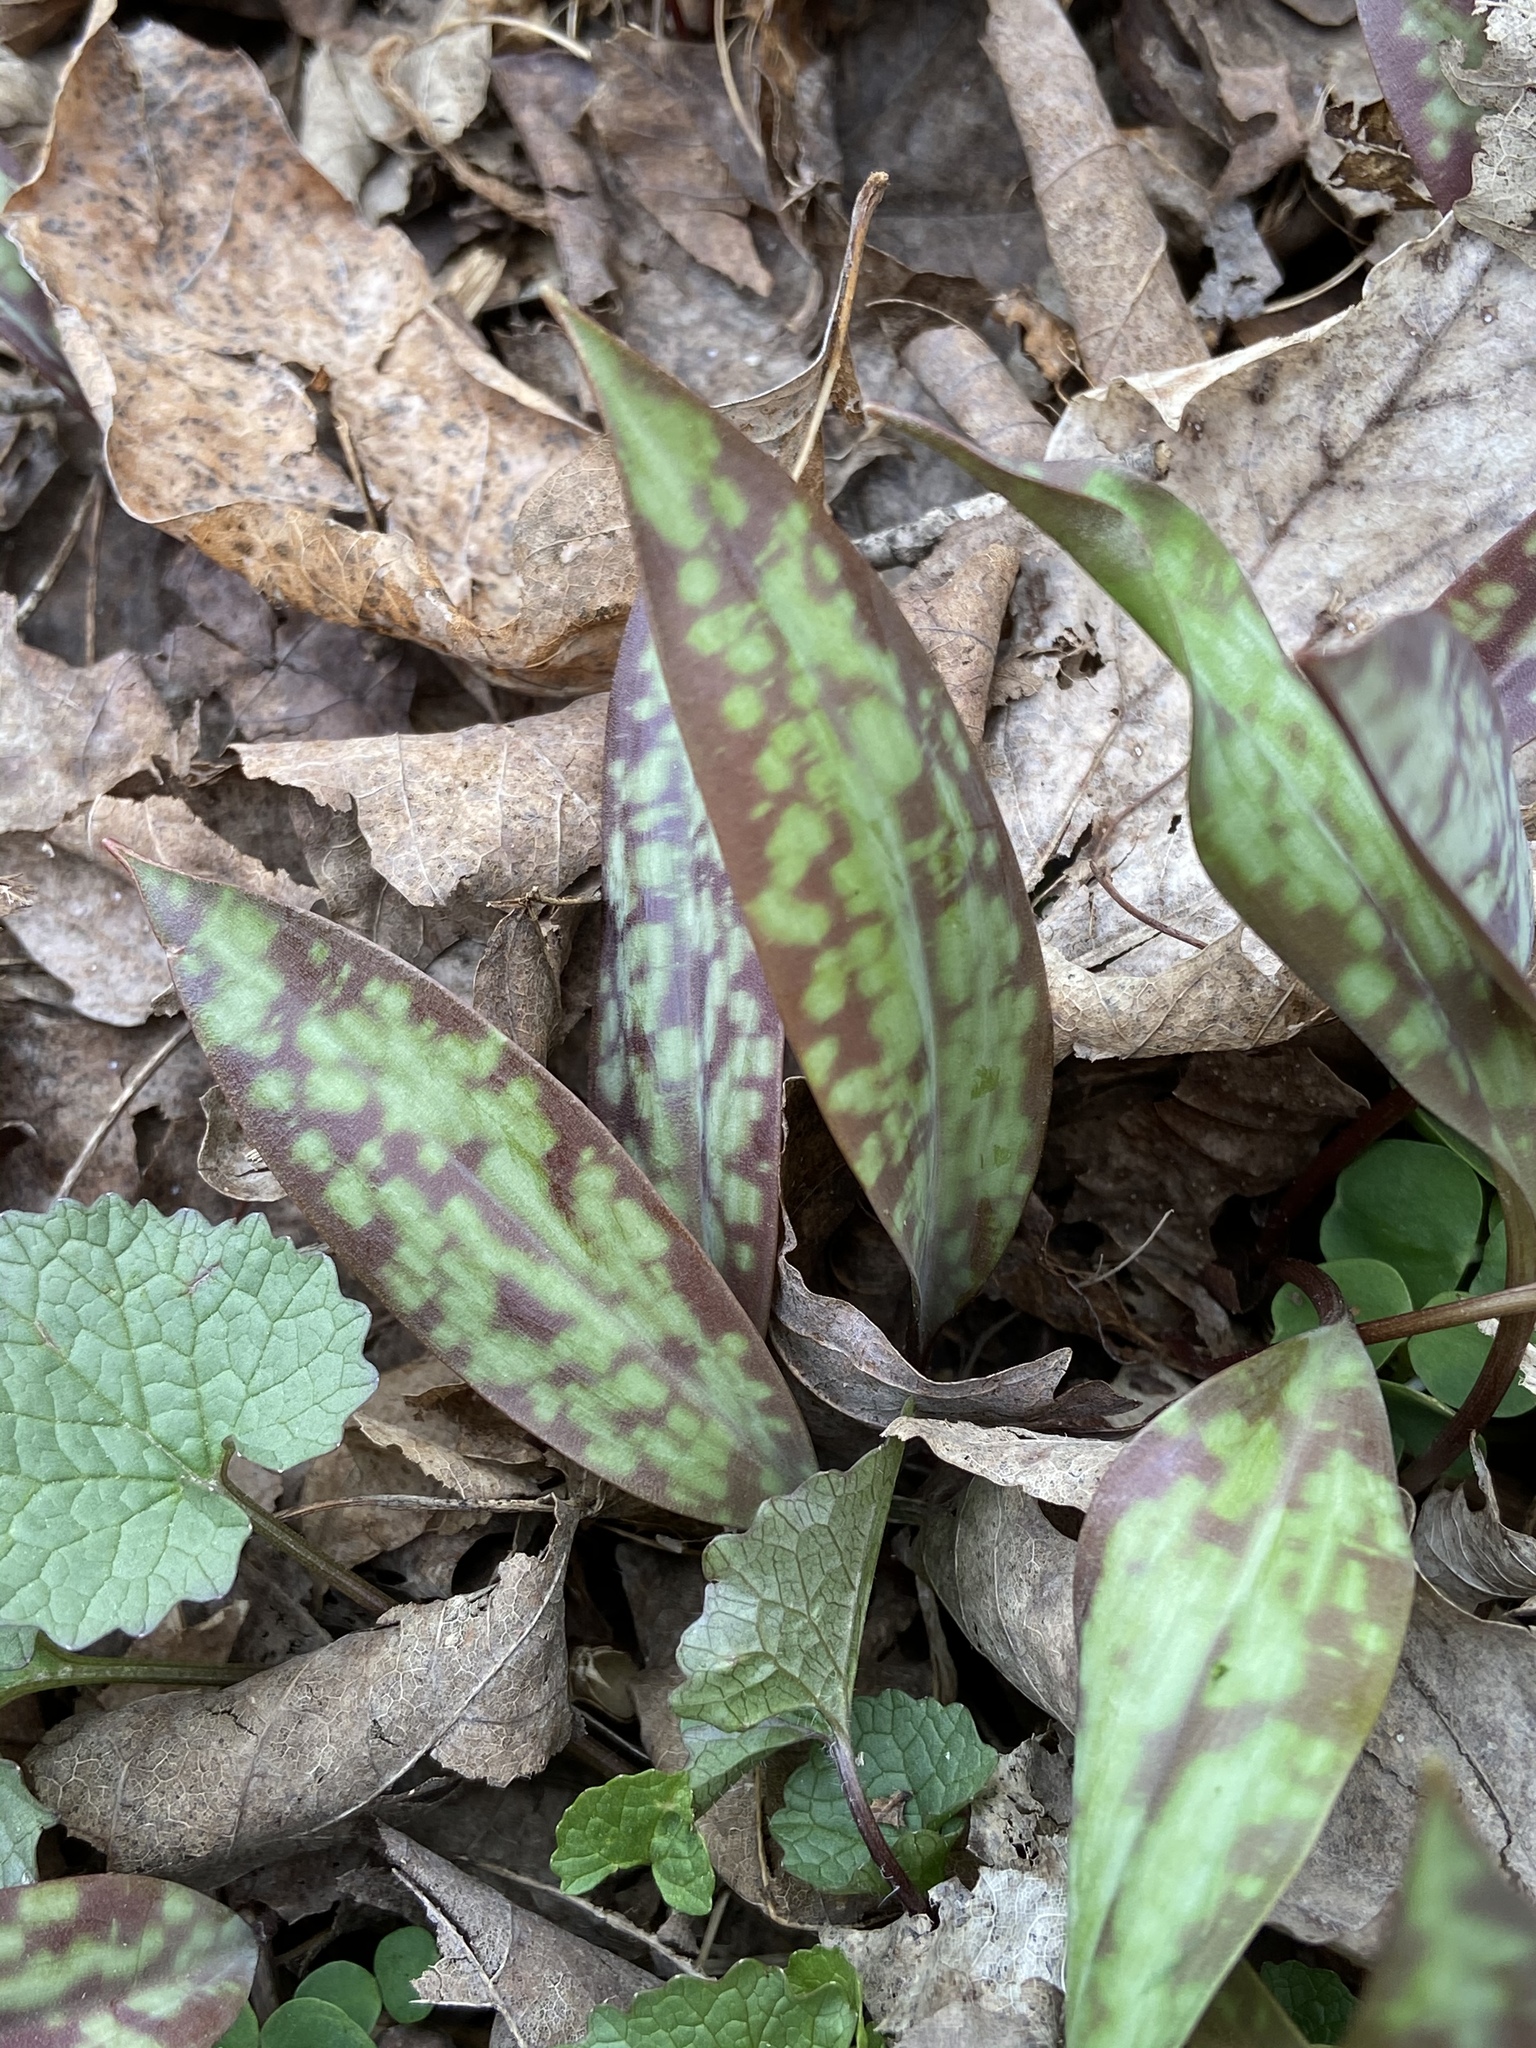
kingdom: Plantae
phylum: Tracheophyta
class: Liliopsida
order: Liliales
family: Liliaceae
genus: Erythronium
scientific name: Erythronium americanum
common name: Yellow adder's-tongue
